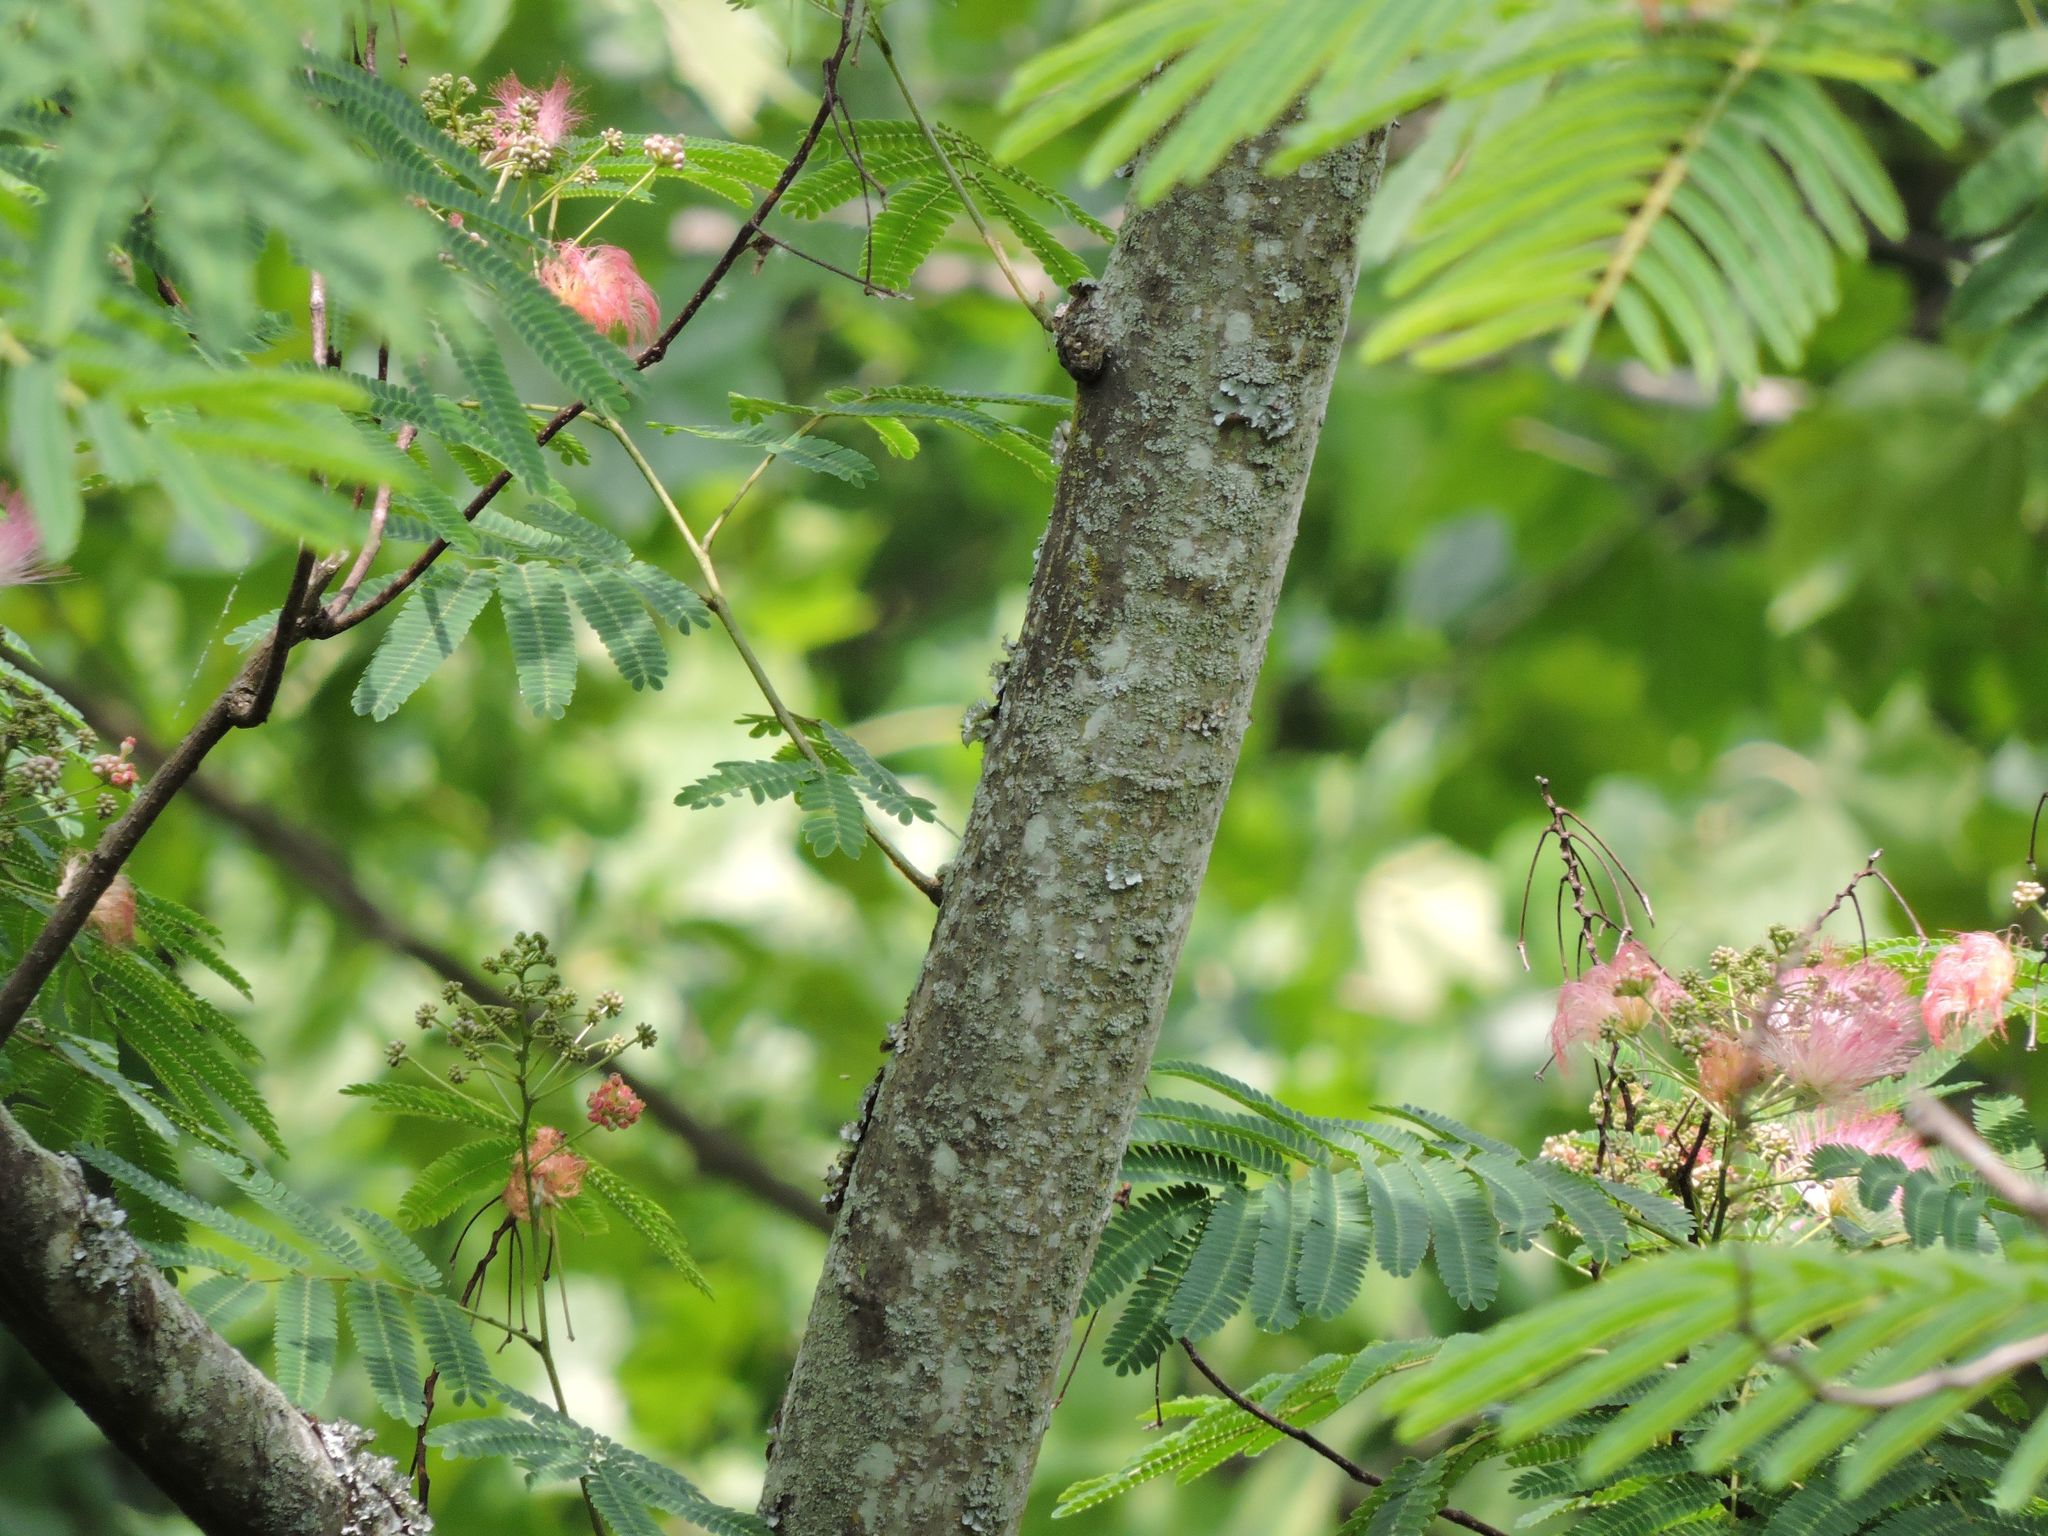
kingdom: Plantae
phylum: Tracheophyta
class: Magnoliopsida
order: Fabales
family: Fabaceae
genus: Albizia
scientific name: Albizia julibrissin
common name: Silktree
